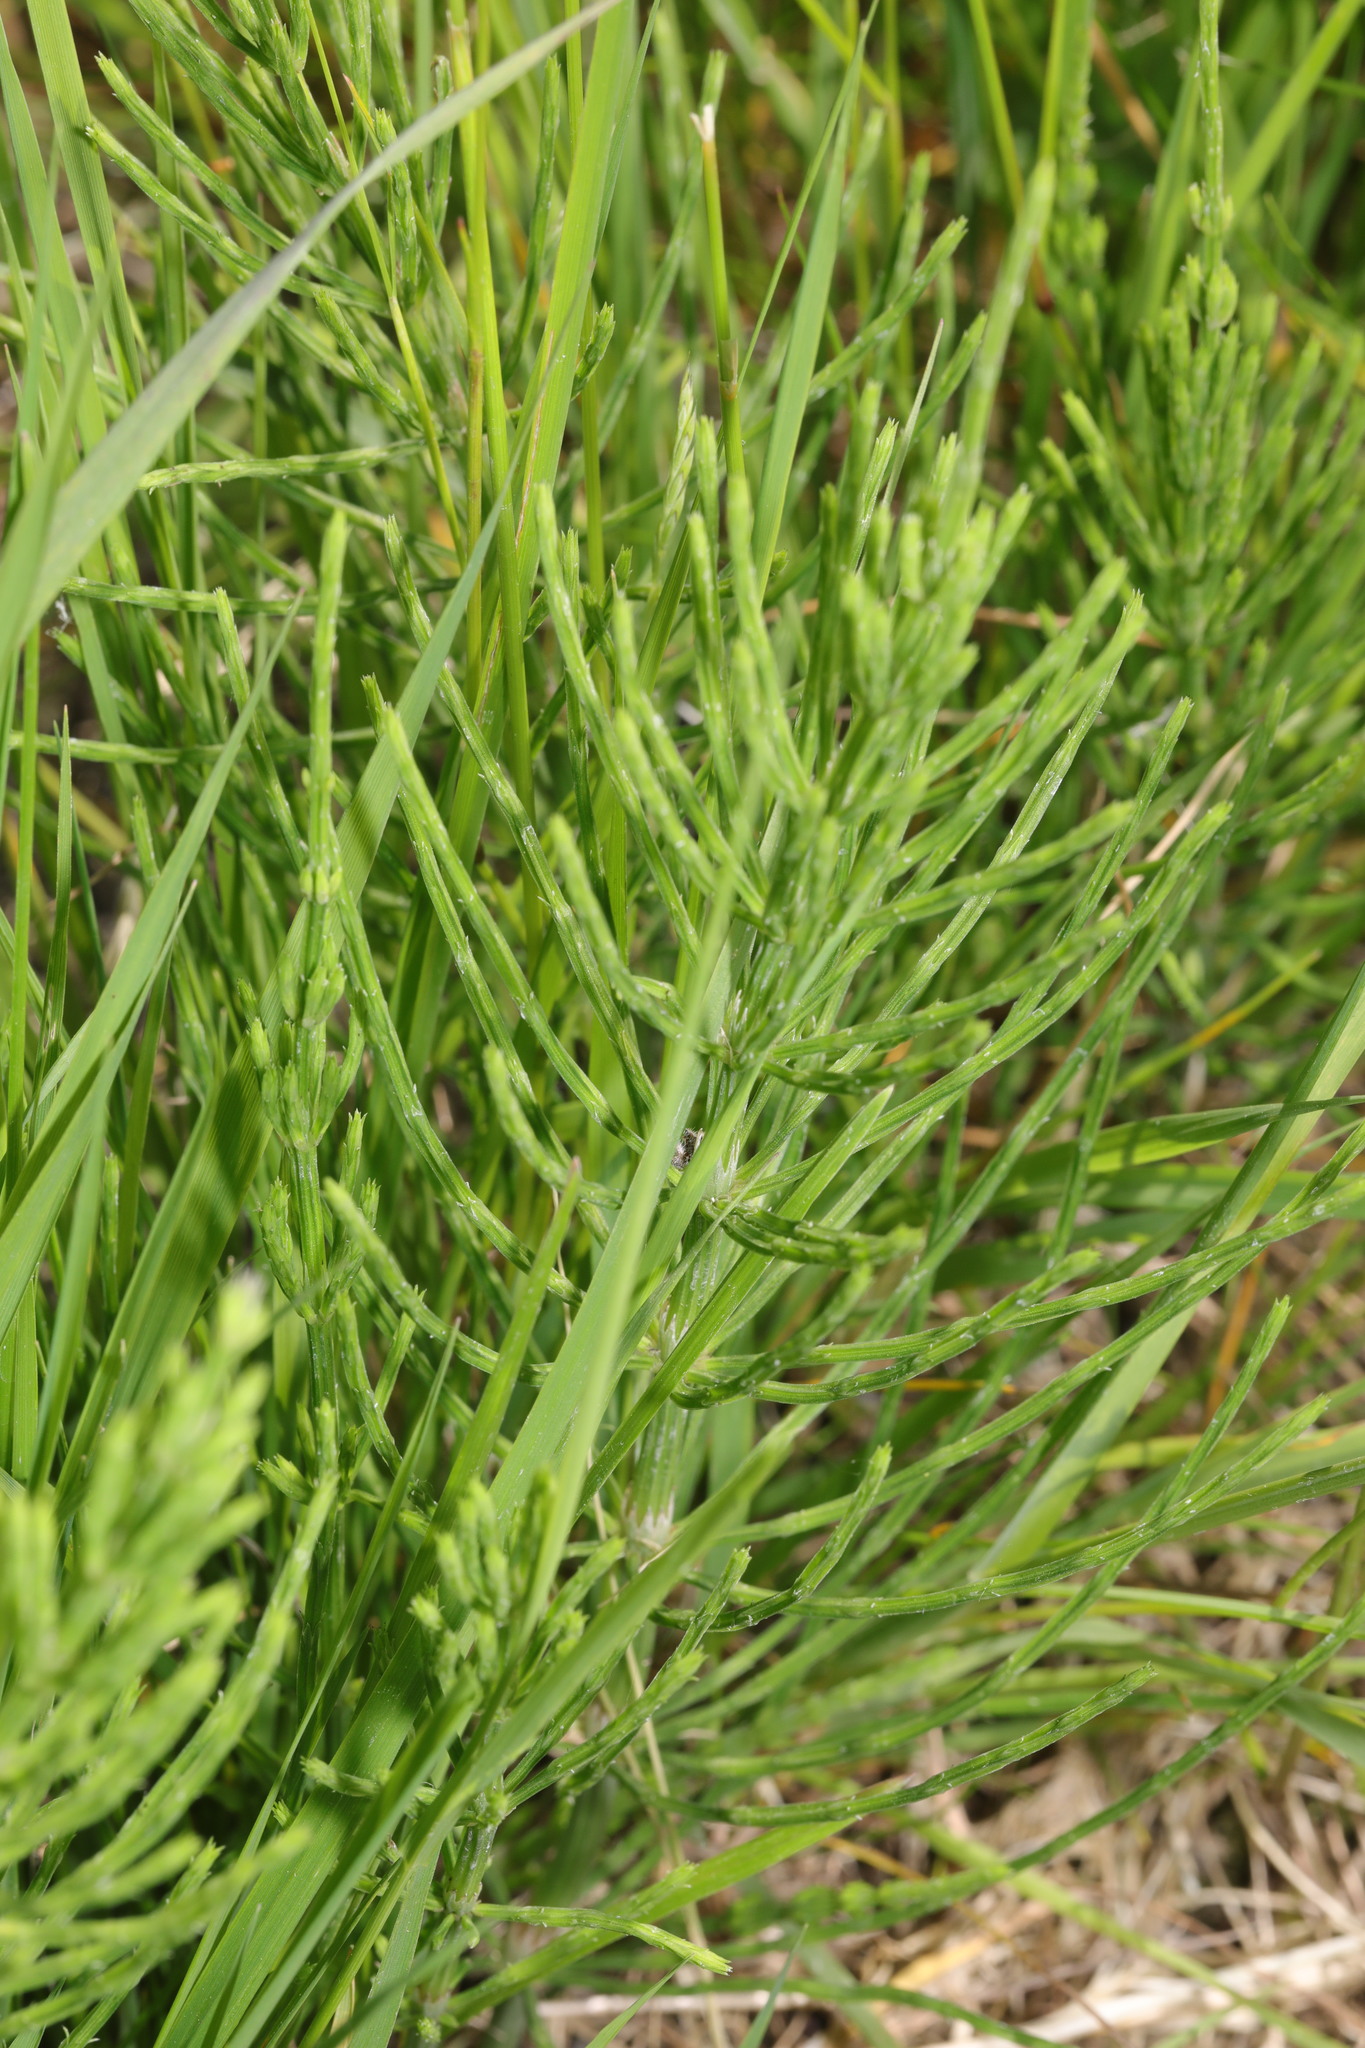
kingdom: Plantae
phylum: Tracheophyta
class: Polypodiopsida
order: Equisetales
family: Equisetaceae
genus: Equisetum
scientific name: Equisetum arvense
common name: Field horsetail
